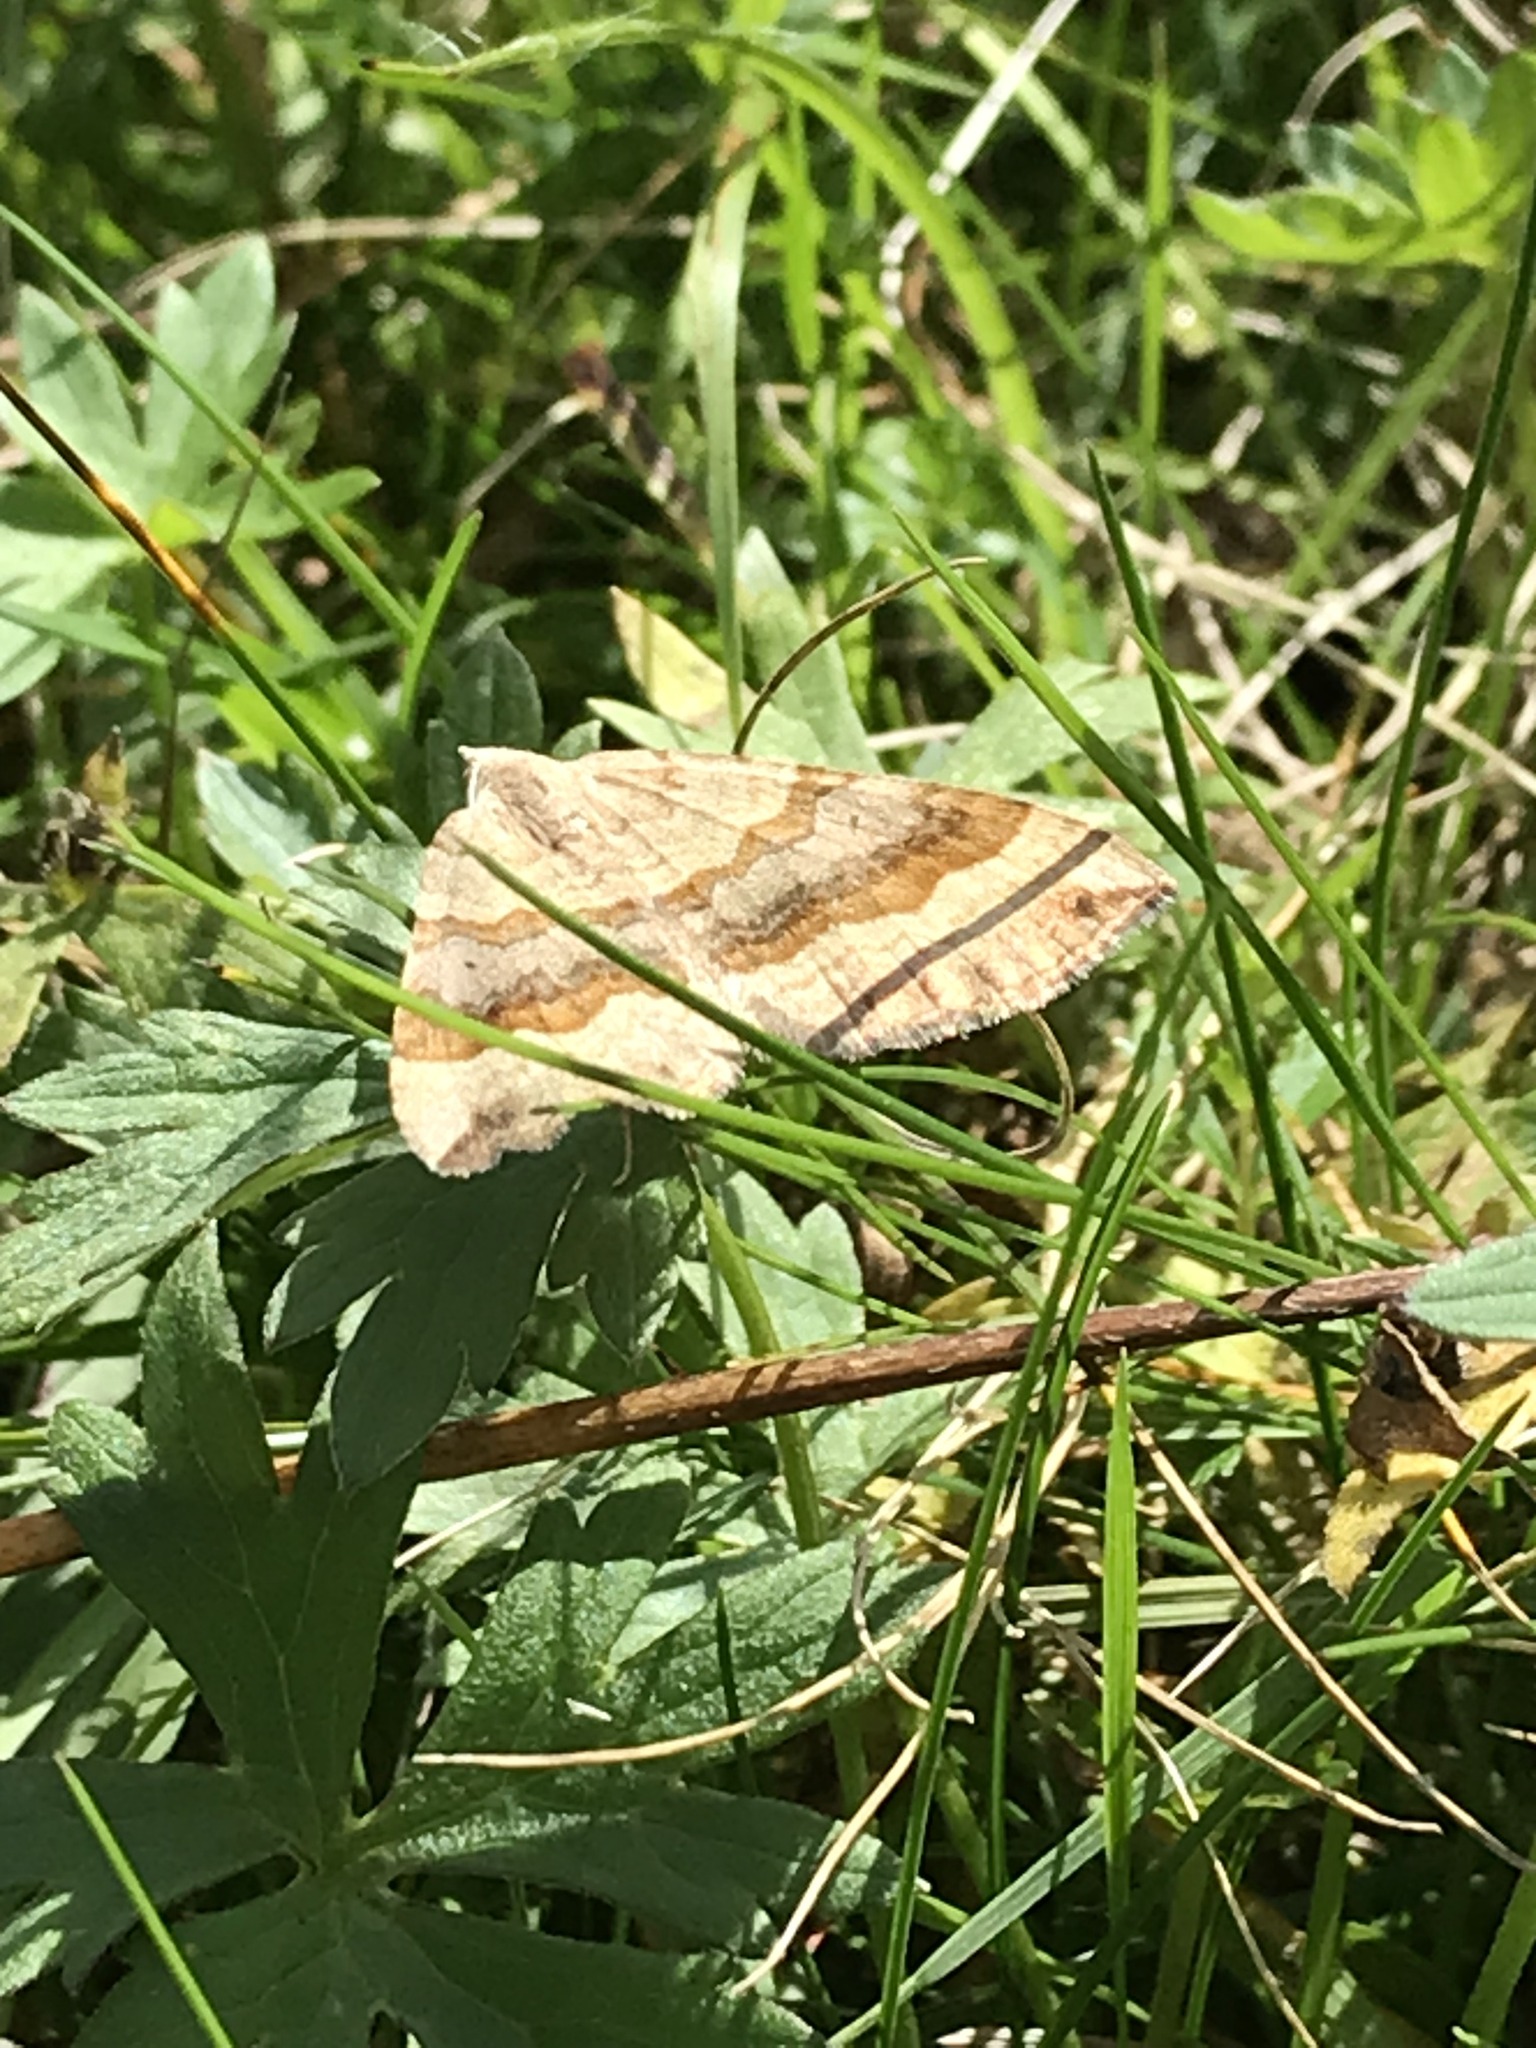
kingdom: Animalia
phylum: Arthropoda
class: Insecta
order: Lepidoptera
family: Geometridae
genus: Scotopteryx
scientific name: Scotopteryx chenopodiata
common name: Shaded broad-bar
